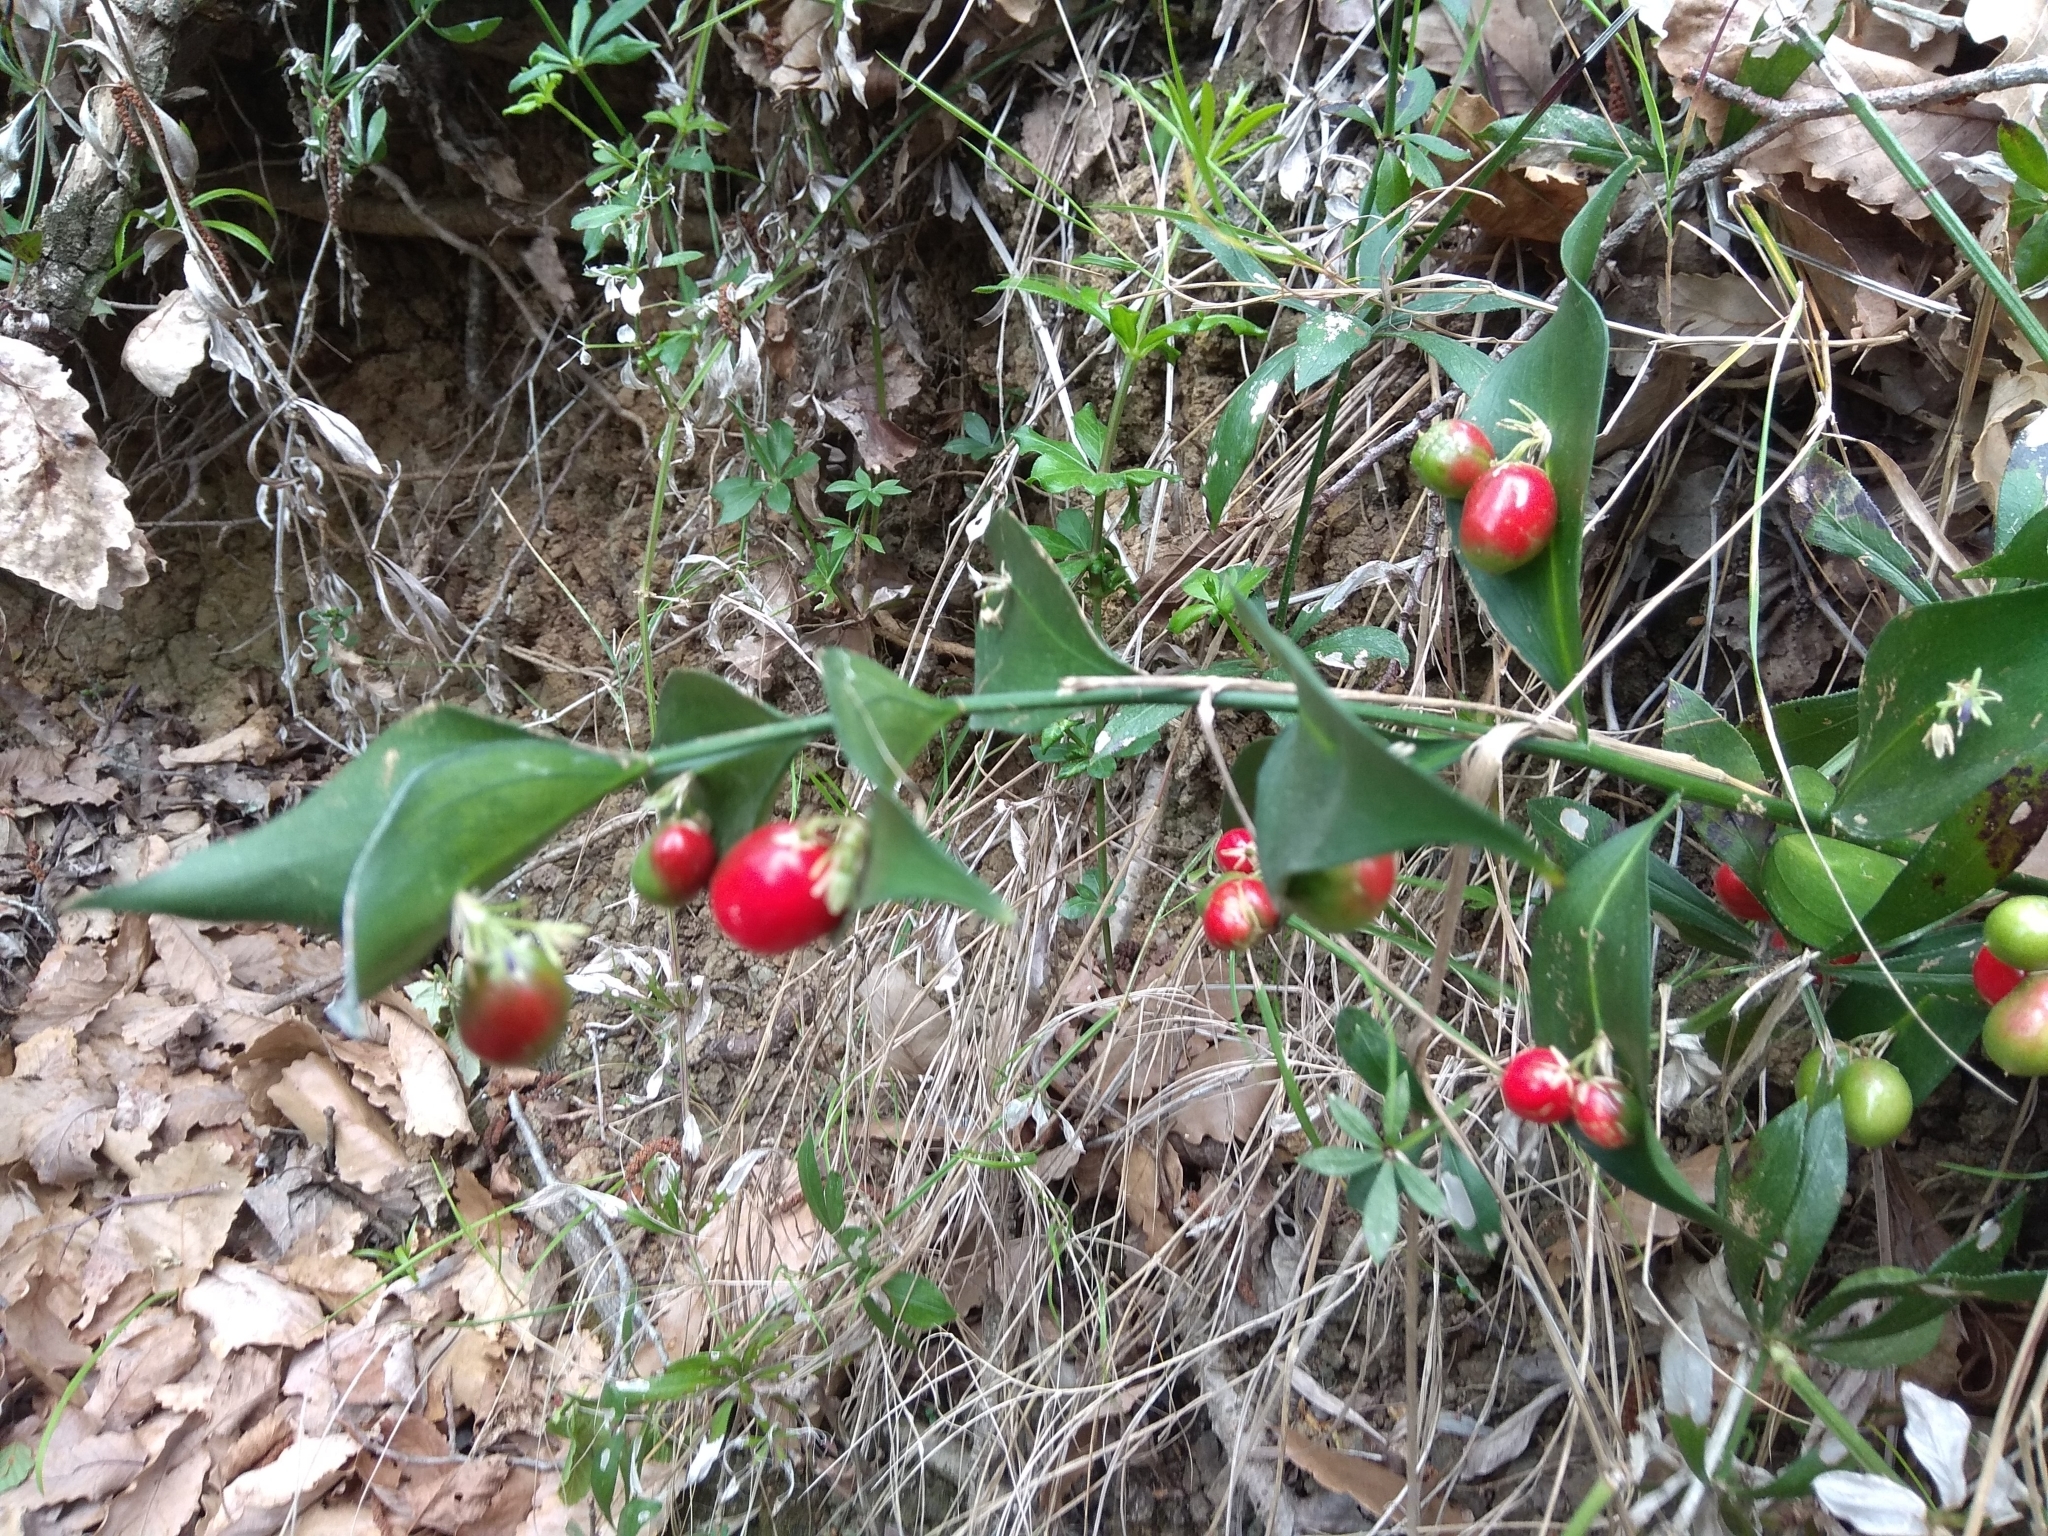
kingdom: Plantae
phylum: Tracheophyta
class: Liliopsida
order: Asparagales
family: Asparagaceae
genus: Ruscus
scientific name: Ruscus hypophyllum
